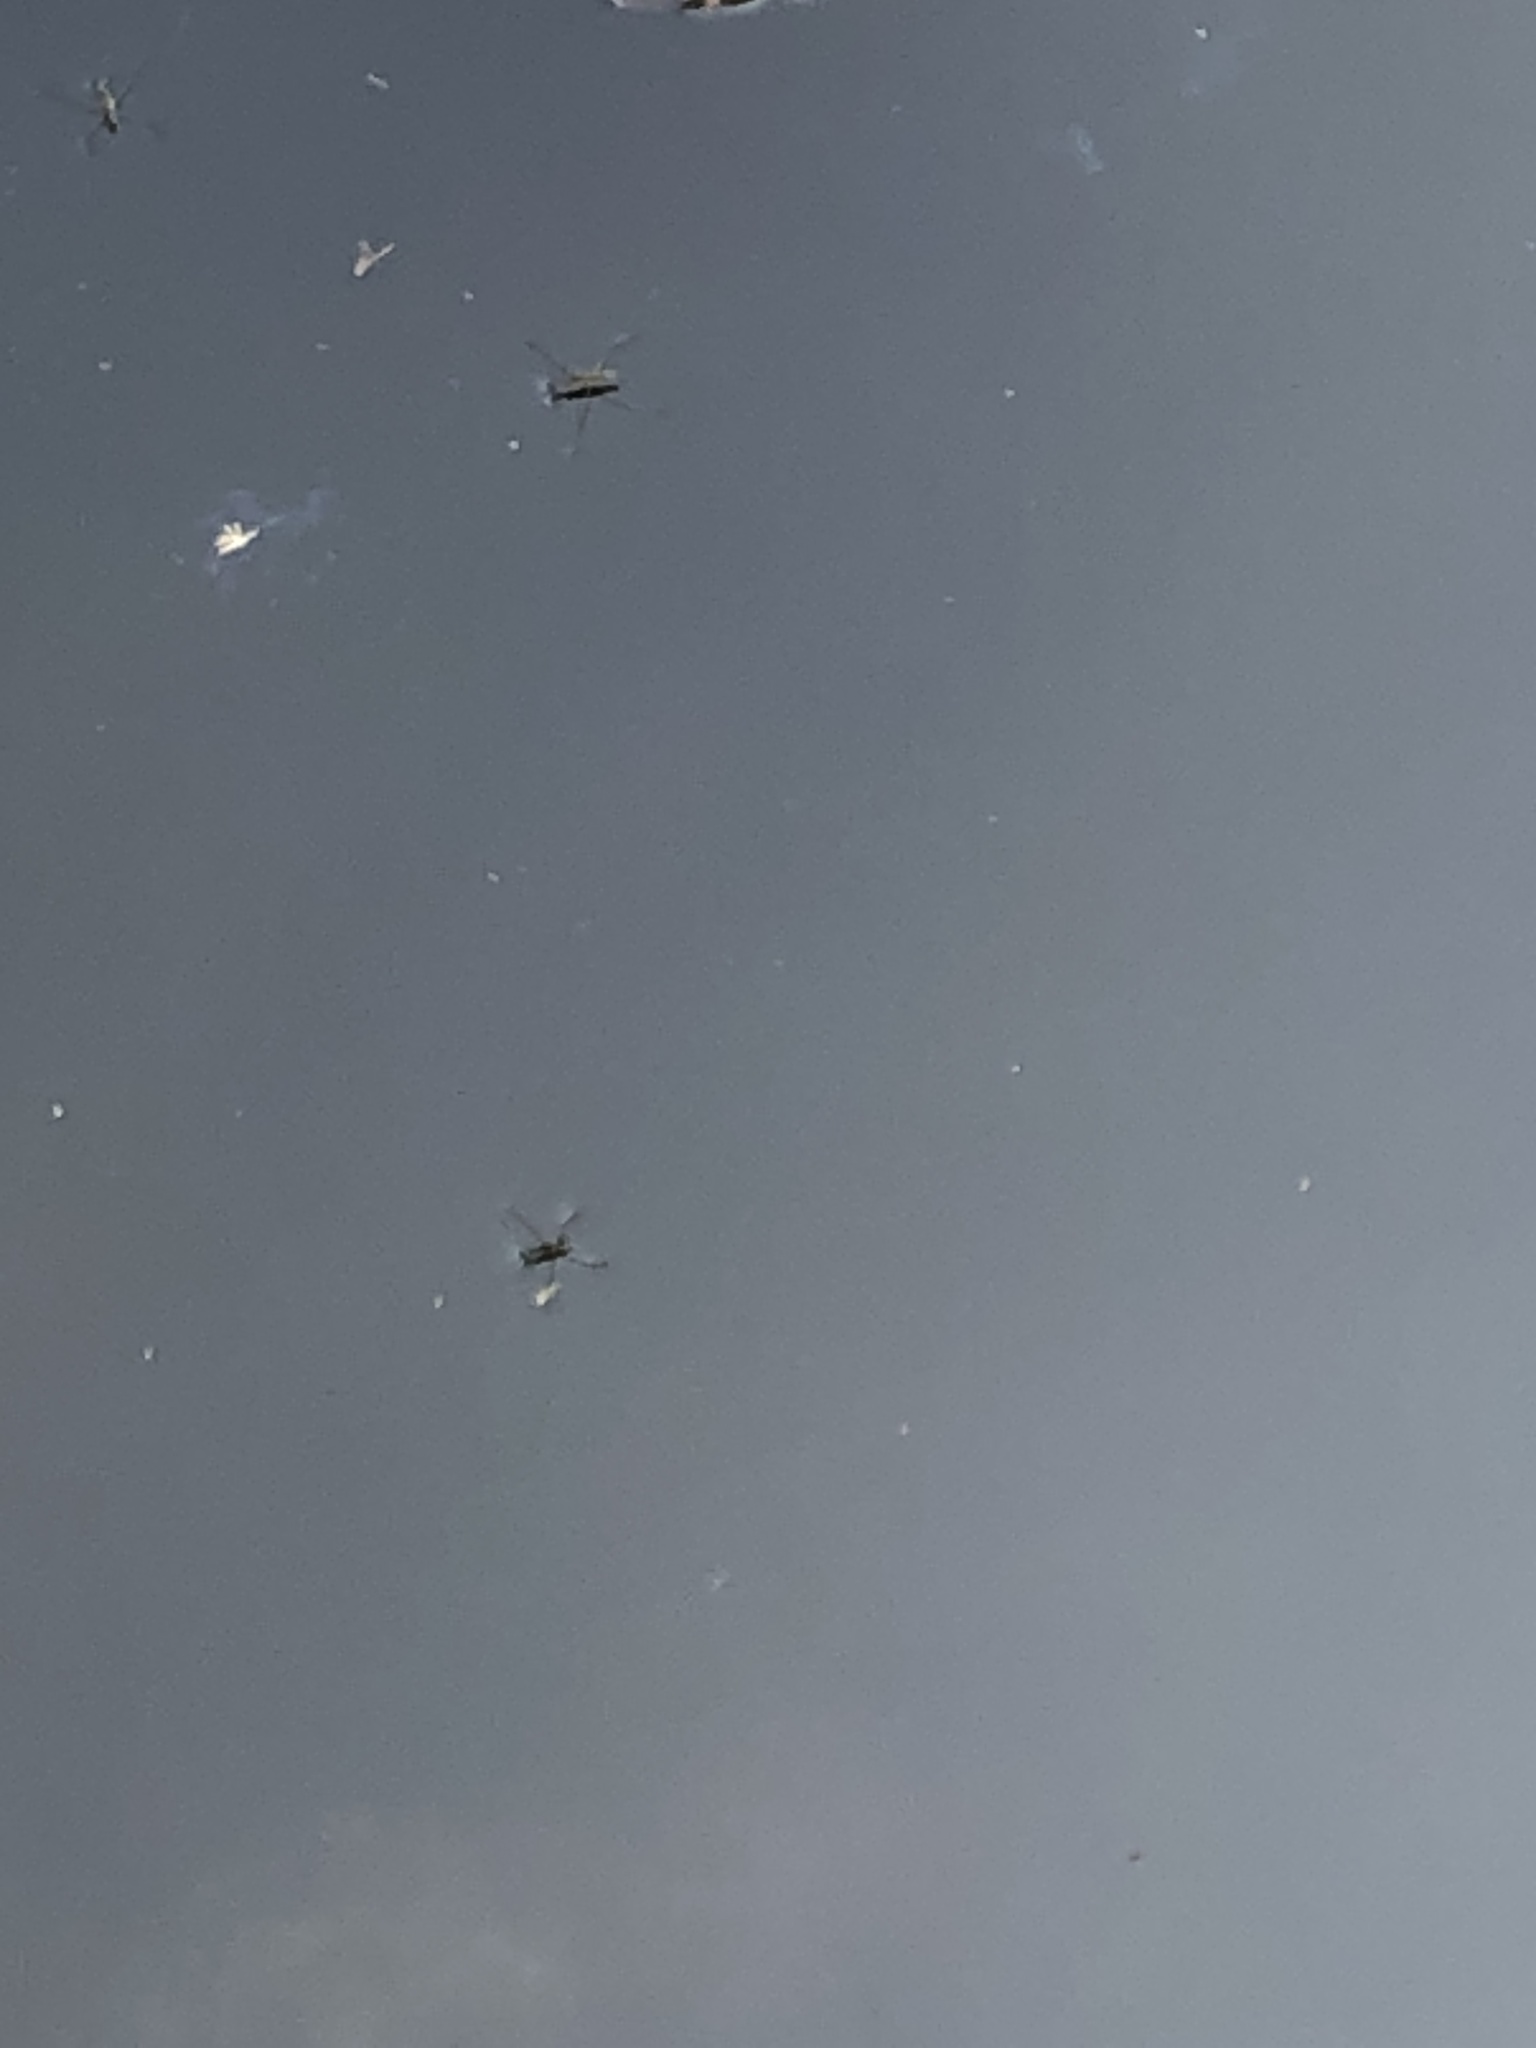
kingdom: Animalia
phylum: Arthropoda
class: Insecta
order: Hemiptera
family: Gerridae
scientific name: Gerridae
